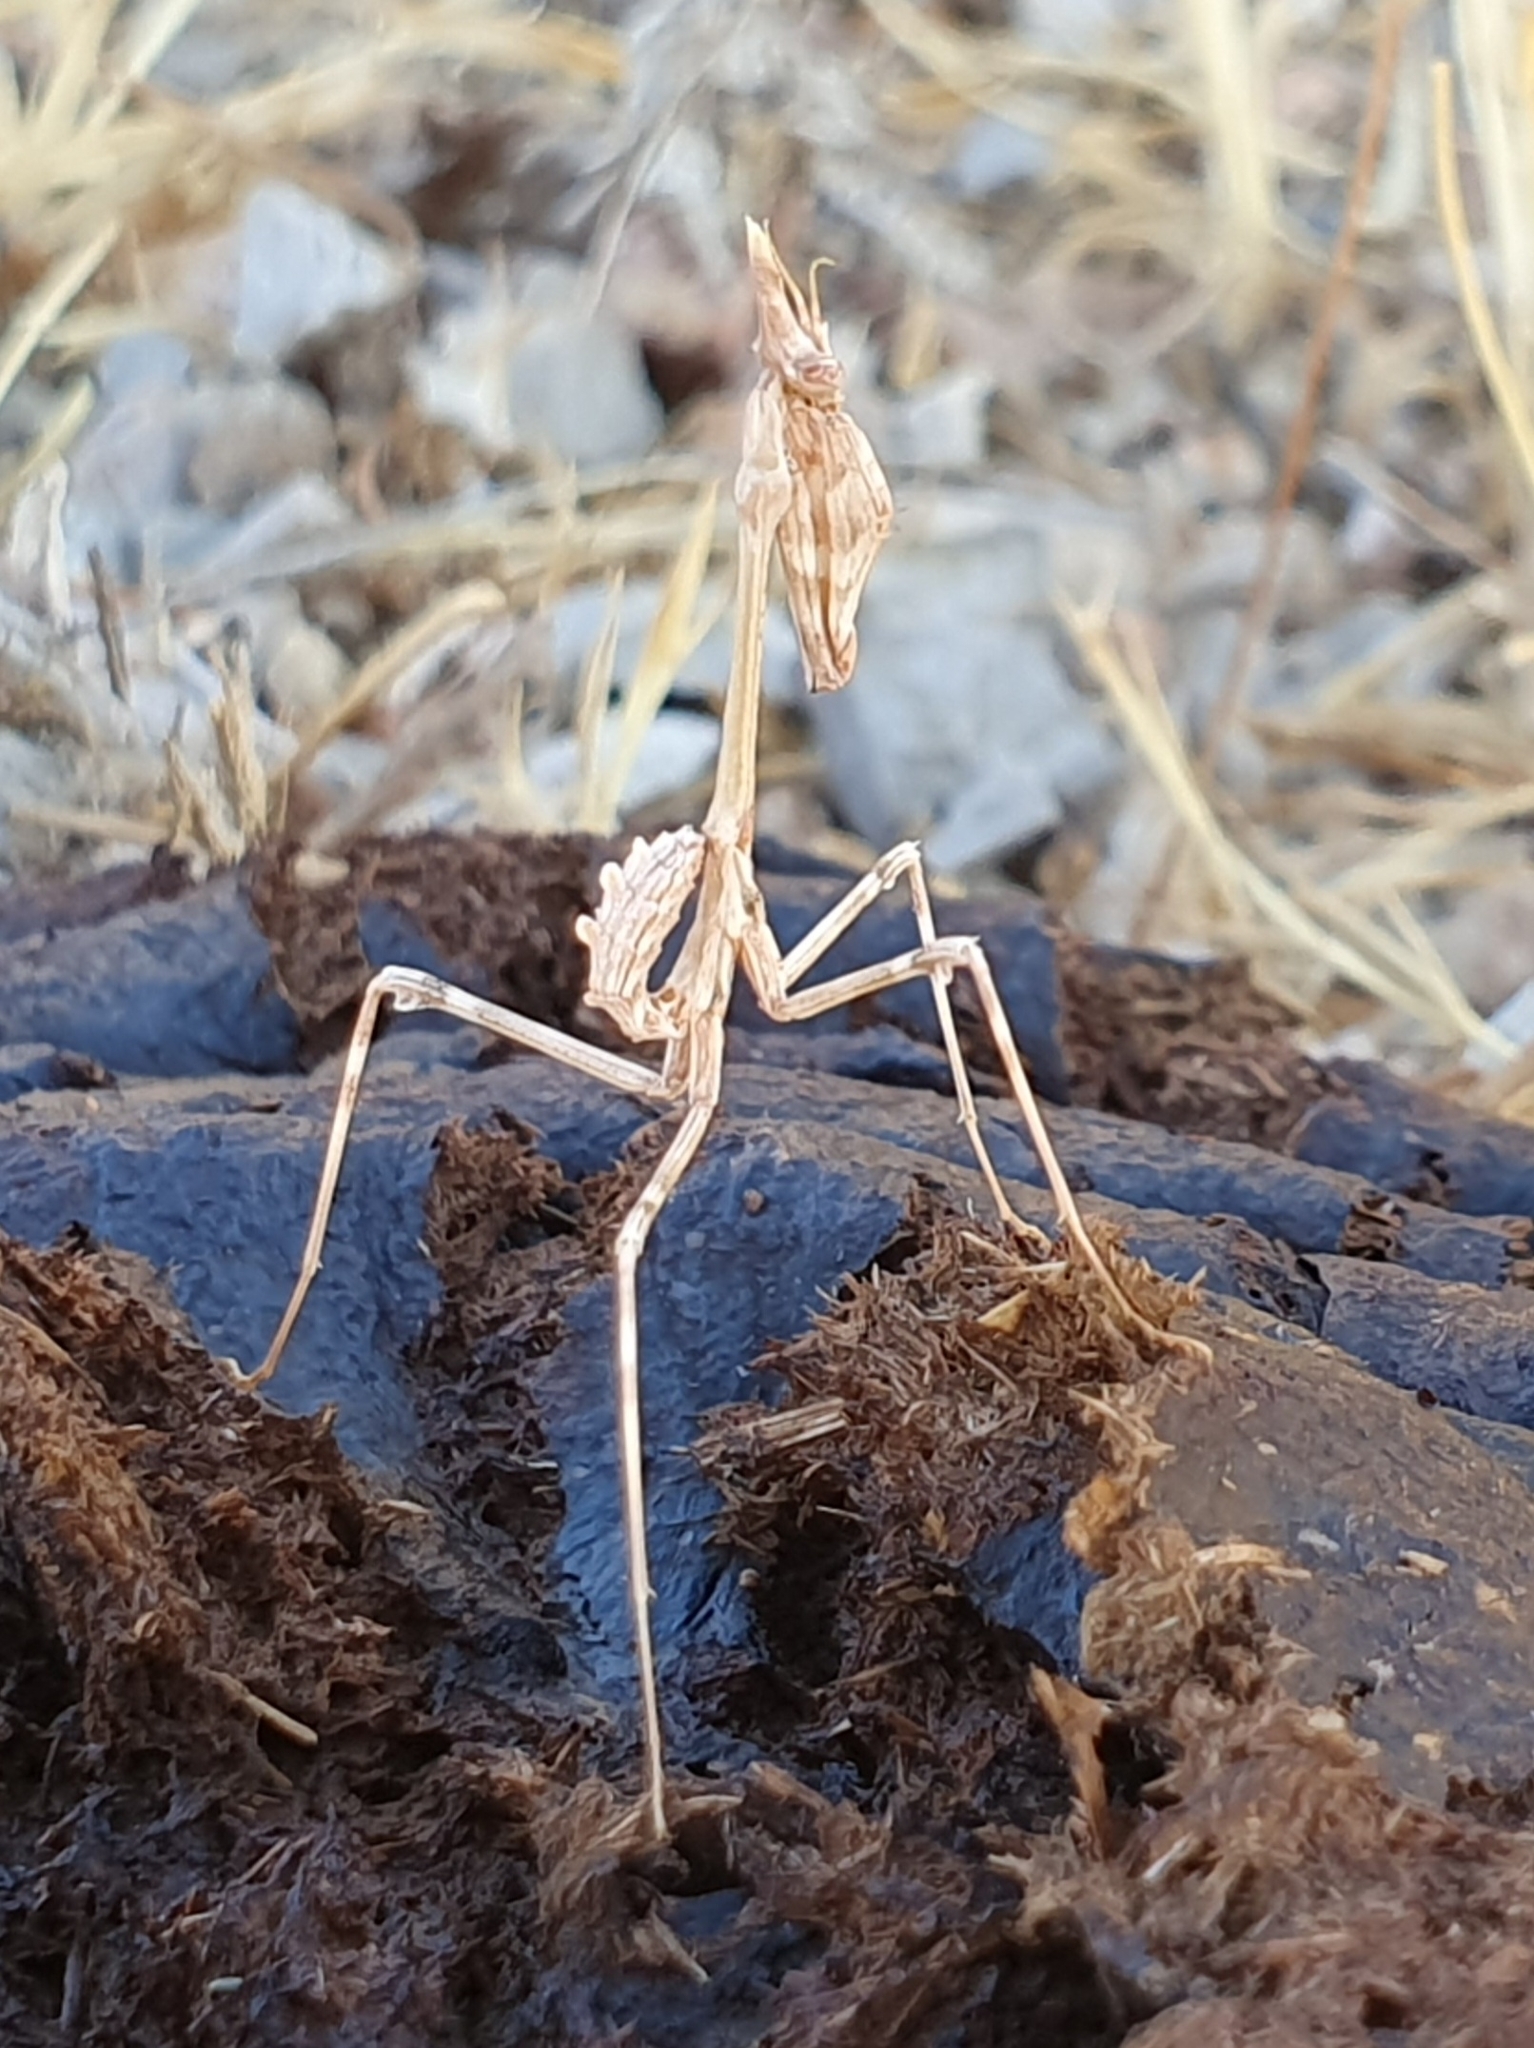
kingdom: Animalia
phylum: Arthropoda
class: Insecta
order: Mantodea
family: Empusidae
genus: Empusa
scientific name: Empusa pennata
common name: Conehead mantis
